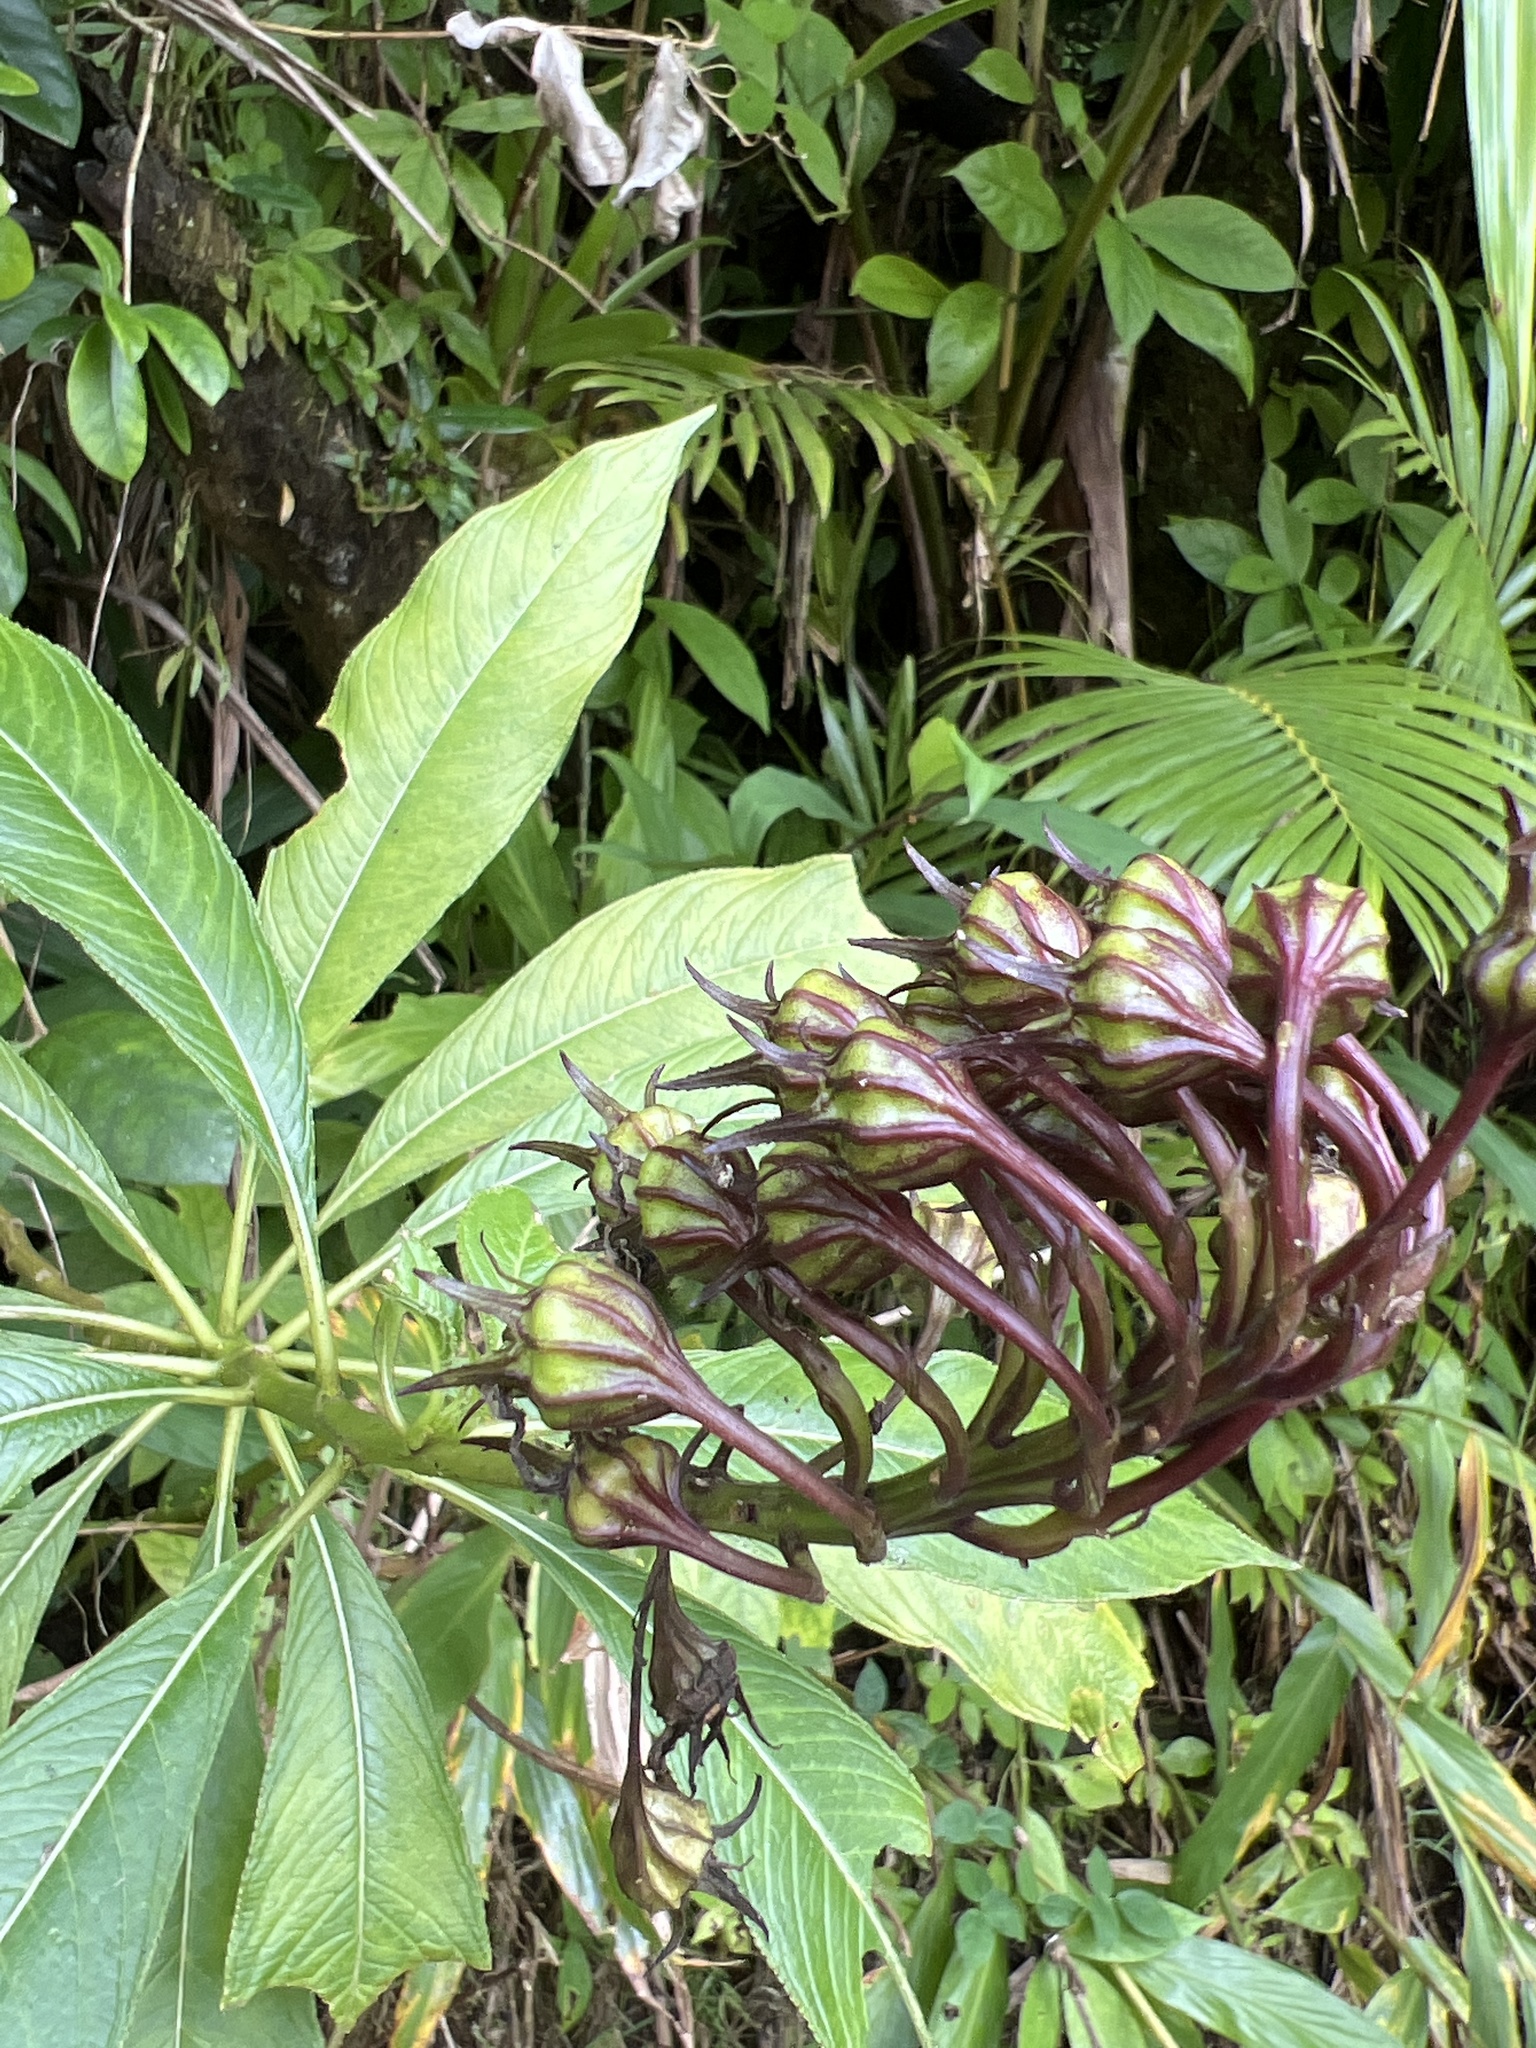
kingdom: Plantae
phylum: Tracheophyta
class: Magnoliopsida
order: Asterales
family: Campanulaceae
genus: Lobelia
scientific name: Lobelia portoricensis
